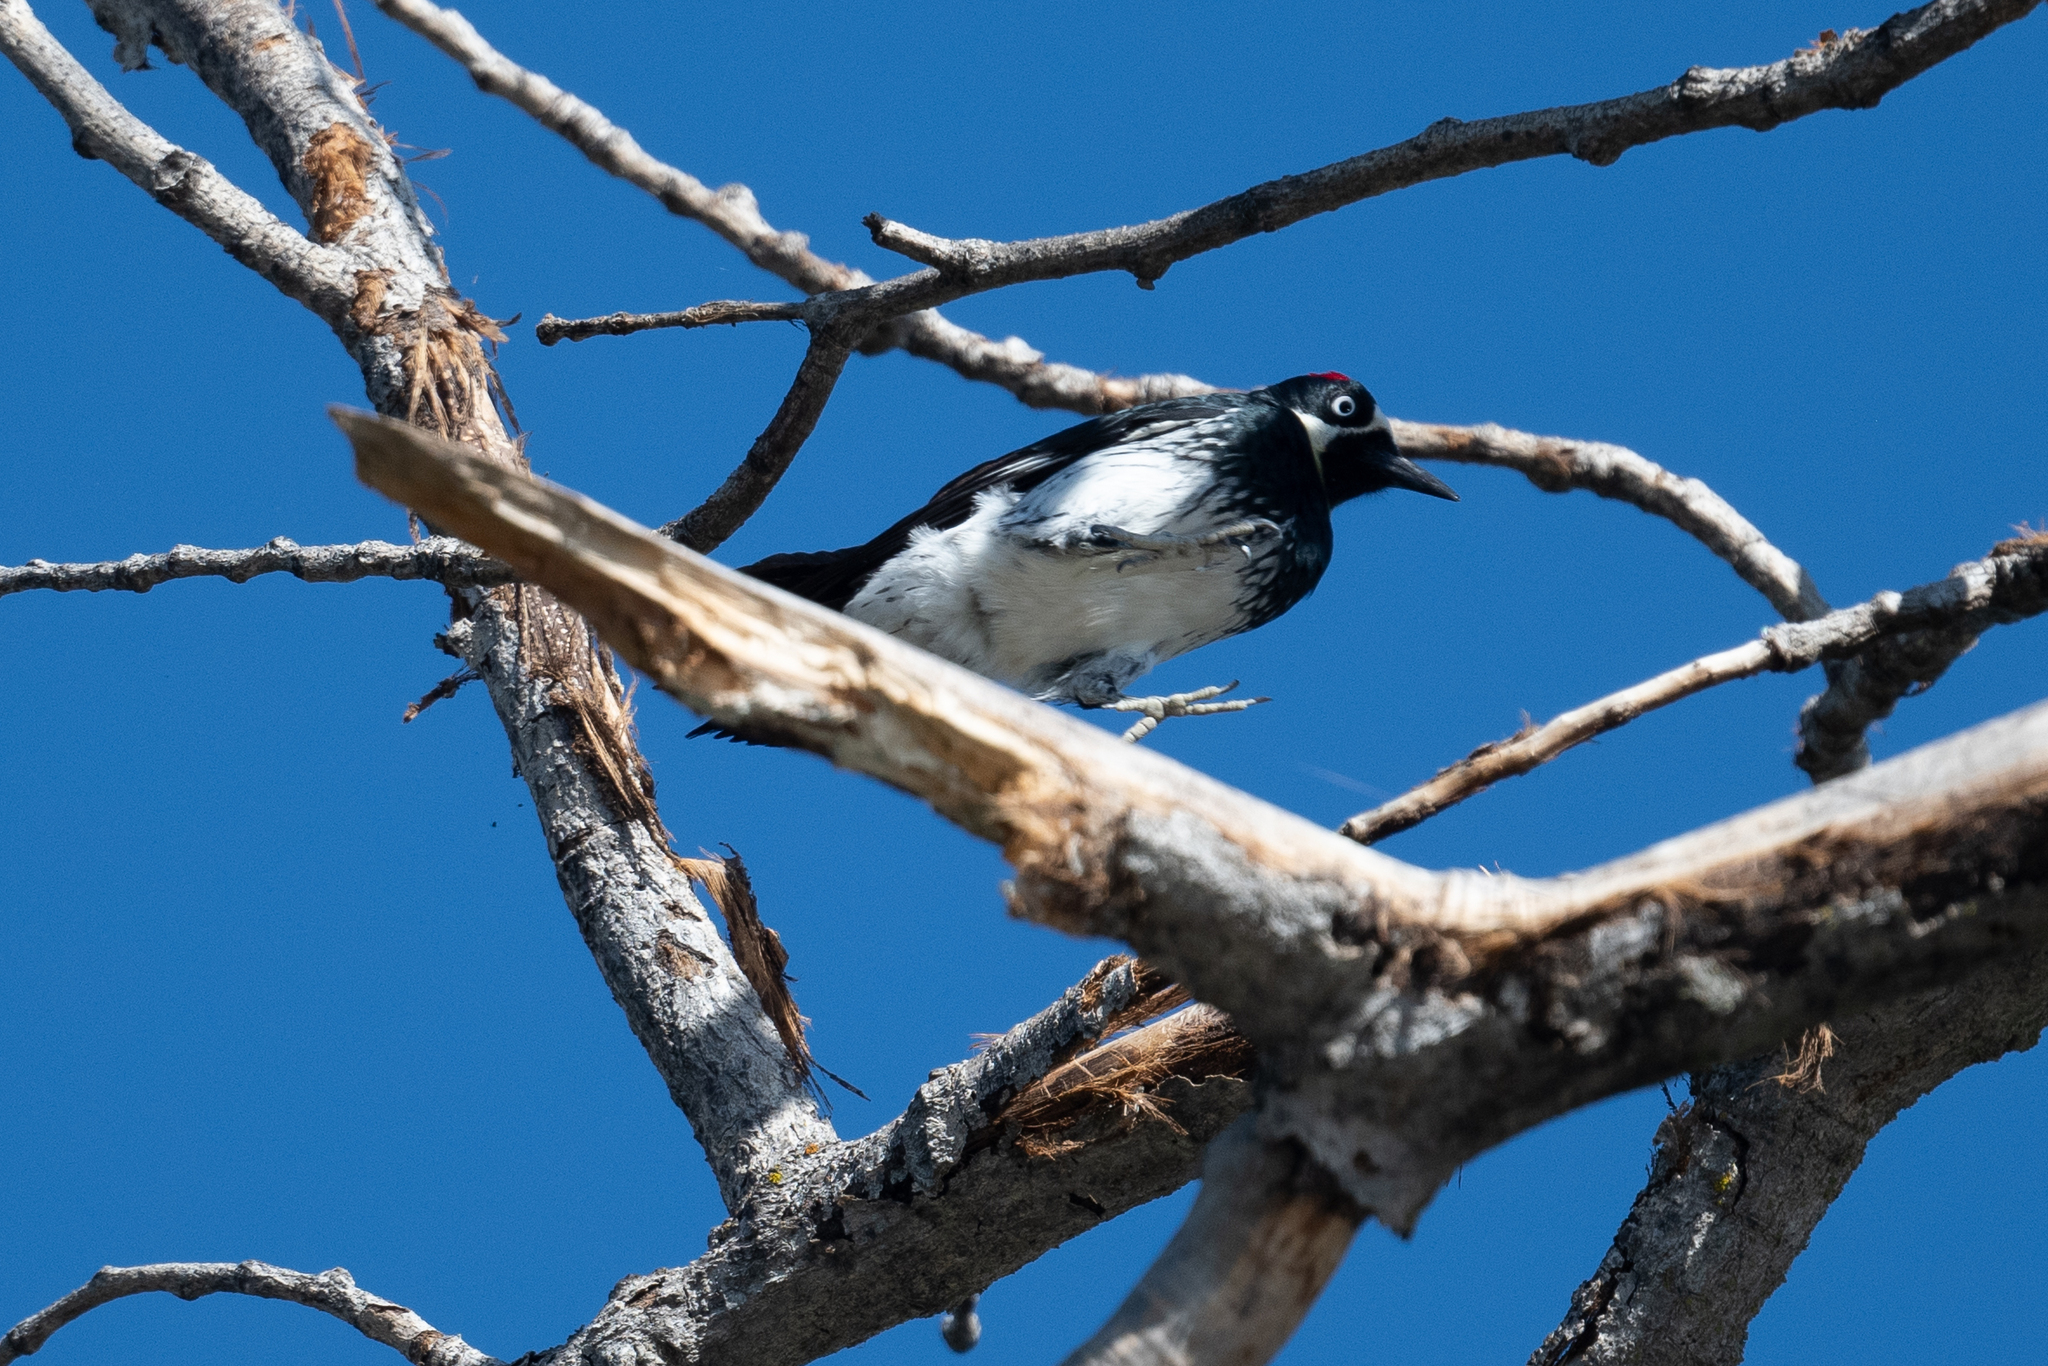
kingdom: Animalia
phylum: Chordata
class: Aves
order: Piciformes
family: Picidae
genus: Melanerpes
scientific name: Melanerpes formicivorus
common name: Acorn woodpecker
